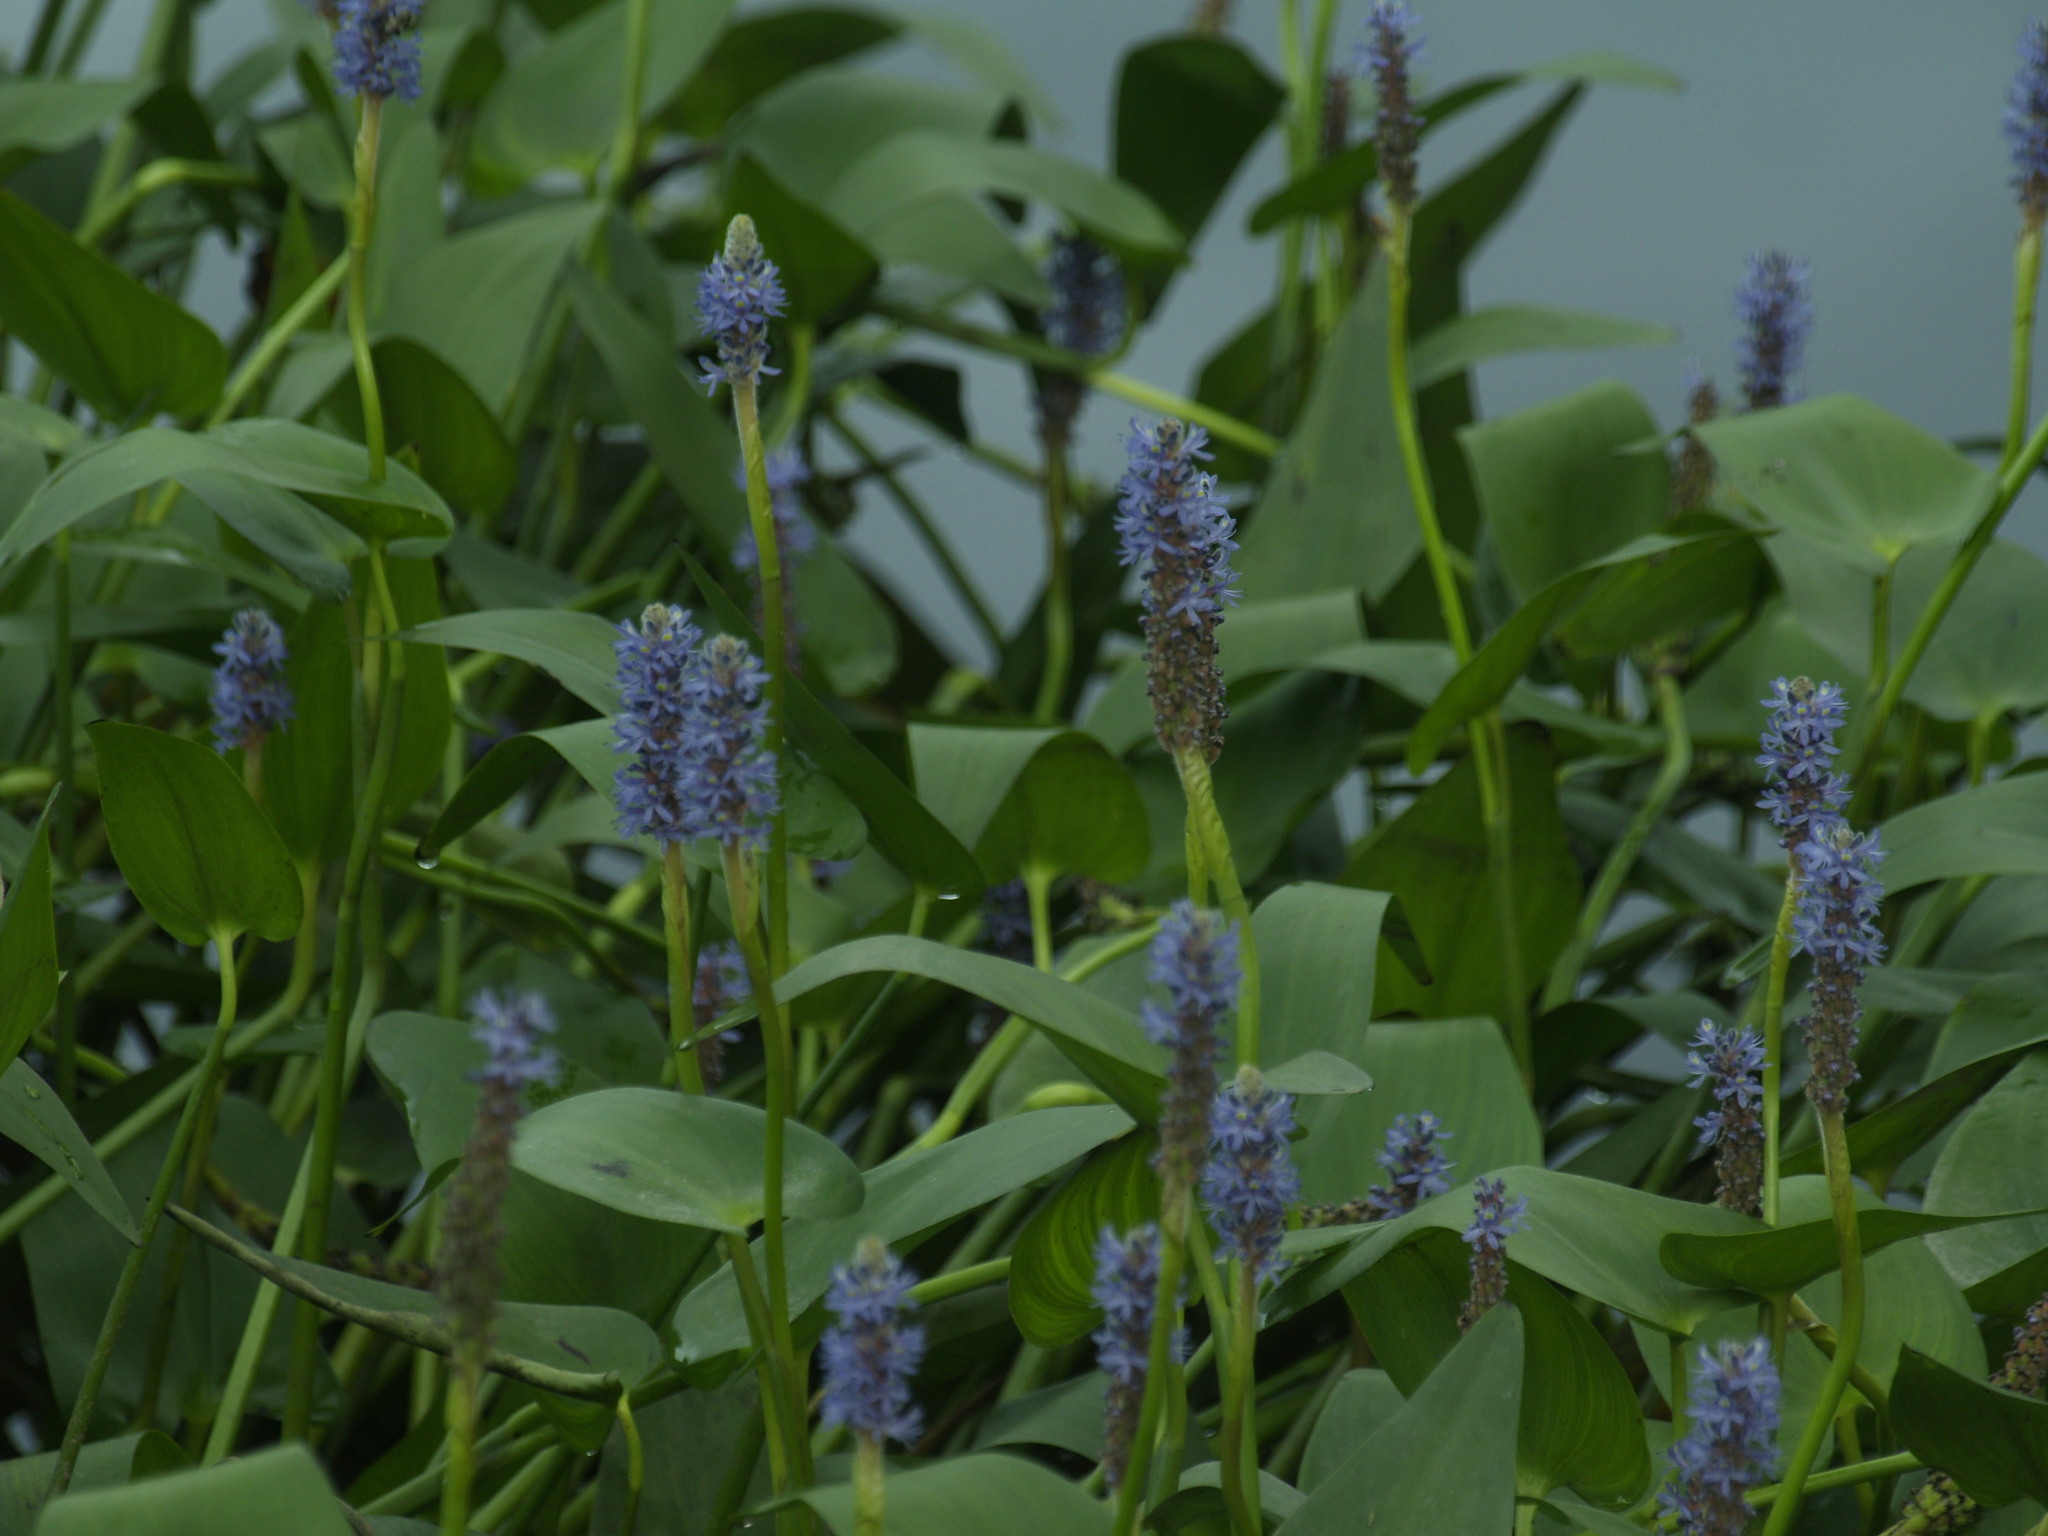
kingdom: Plantae
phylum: Tracheophyta
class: Liliopsida
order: Commelinales
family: Pontederiaceae
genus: Pontederia
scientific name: Pontederia cordata
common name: Pickerelweed
